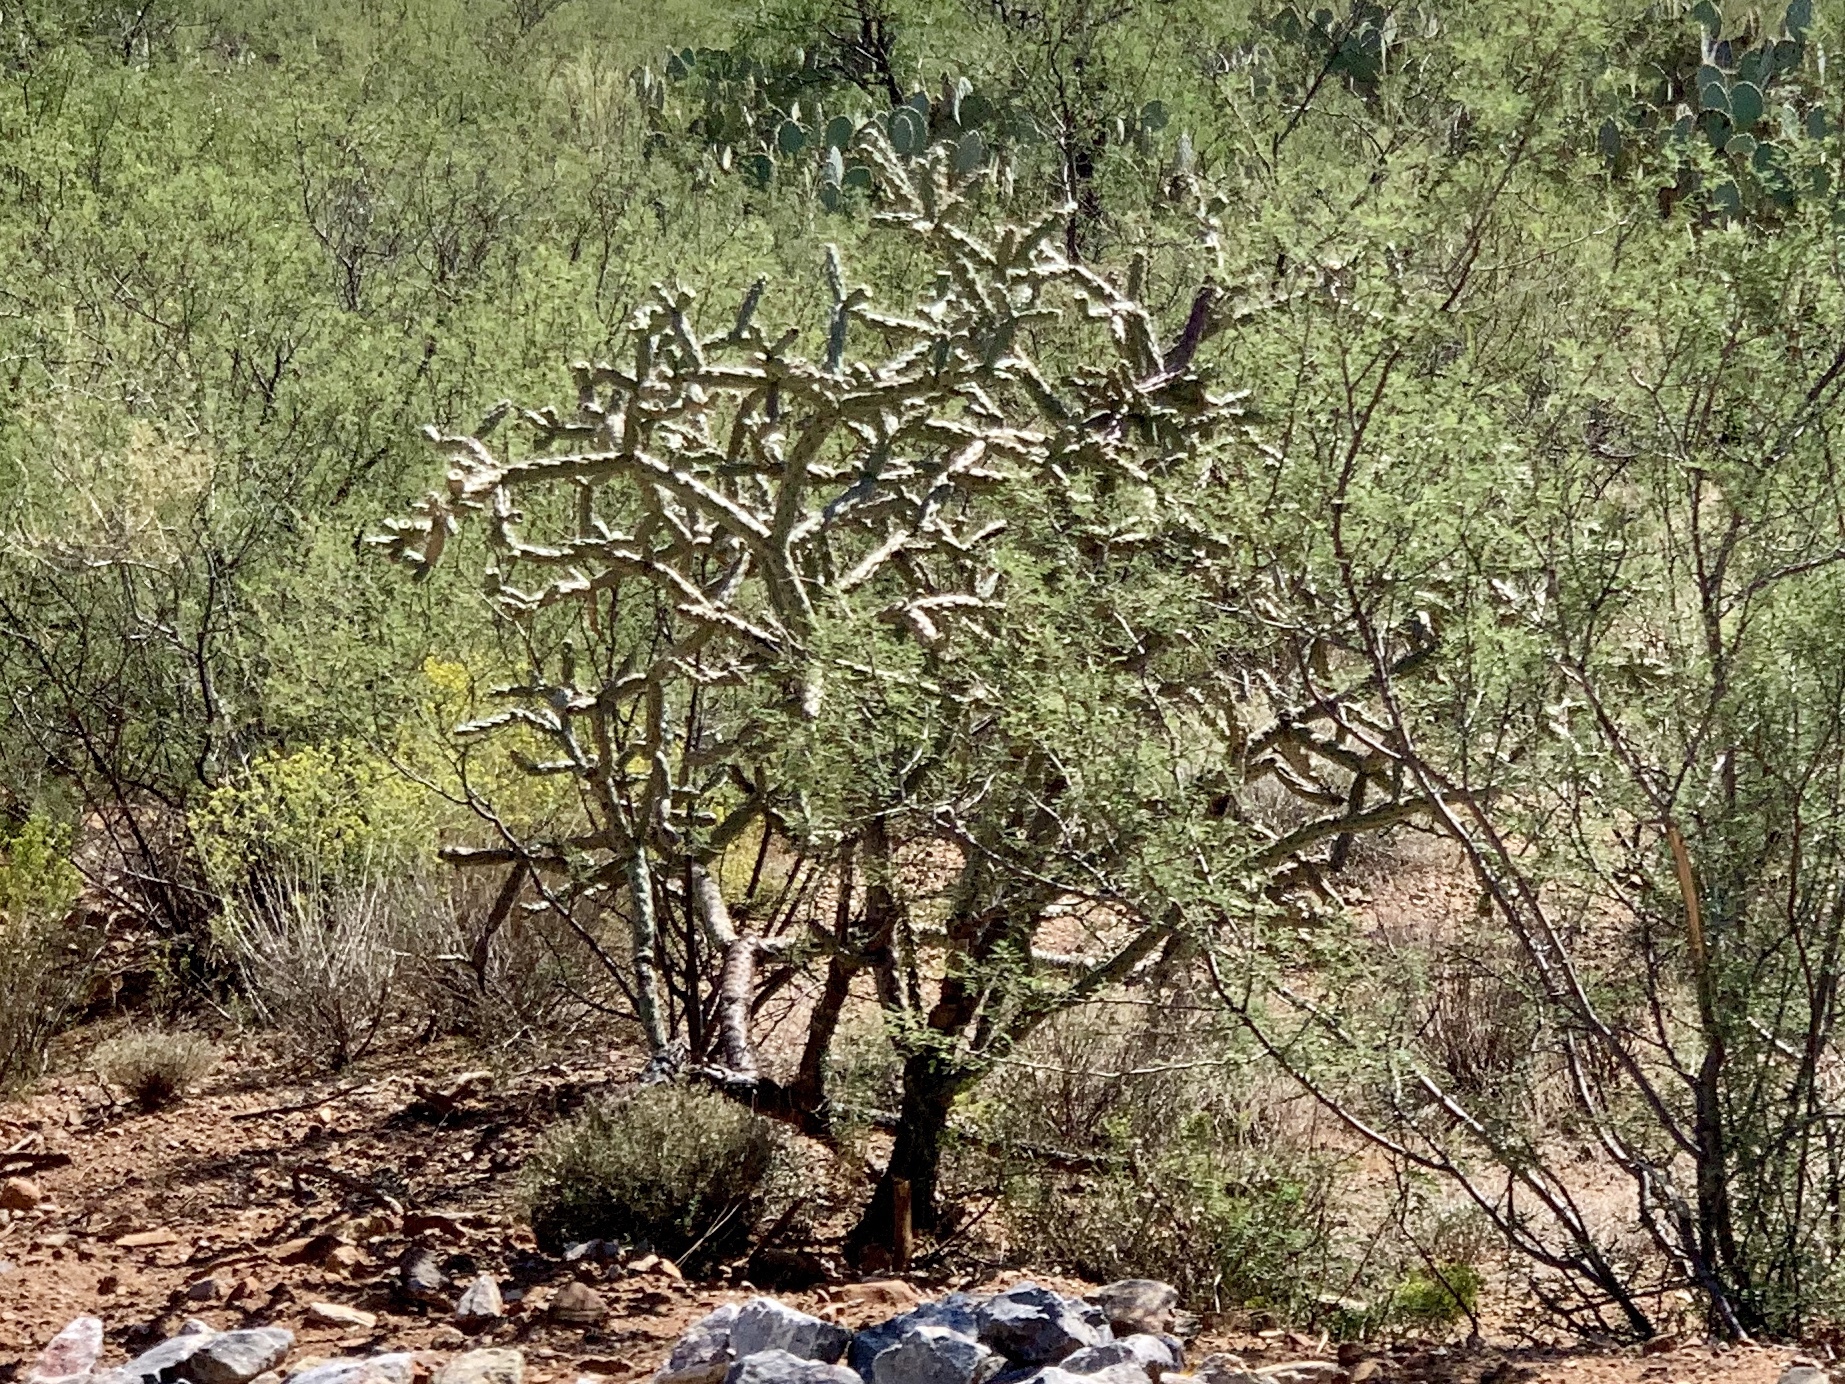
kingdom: Plantae
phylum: Tracheophyta
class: Magnoliopsida
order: Caryophyllales
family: Cactaceae
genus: Cylindropuntia
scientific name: Cylindropuntia thurberi
